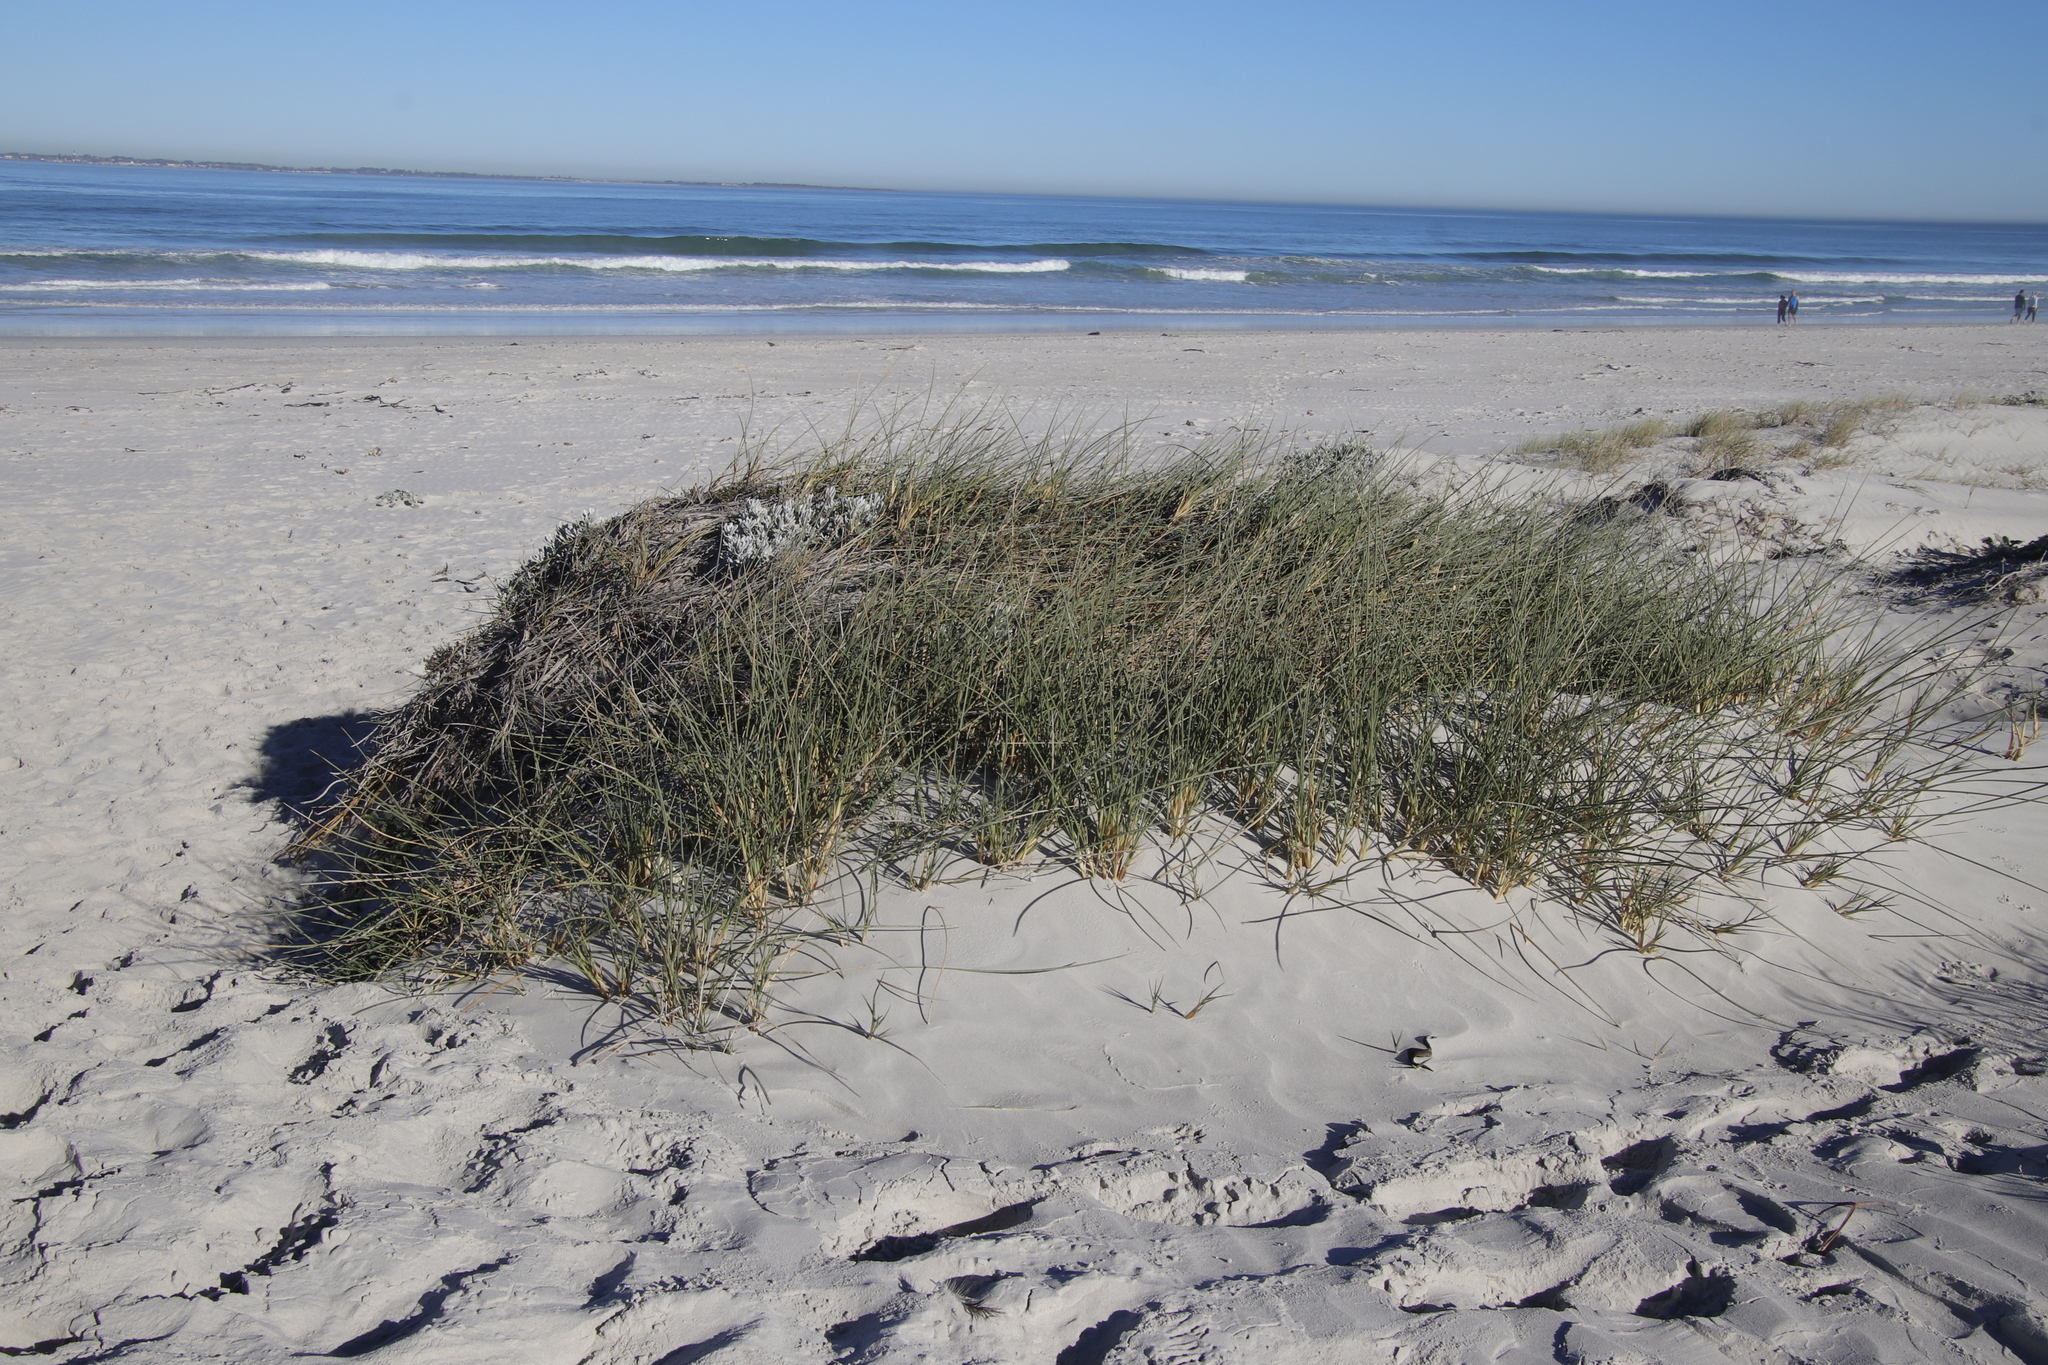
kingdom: Plantae
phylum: Tracheophyta
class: Liliopsida
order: Poales
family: Poaceae
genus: Cladoraphis
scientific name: Cladoraphis cyperoides
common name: Bristly lovegrass
